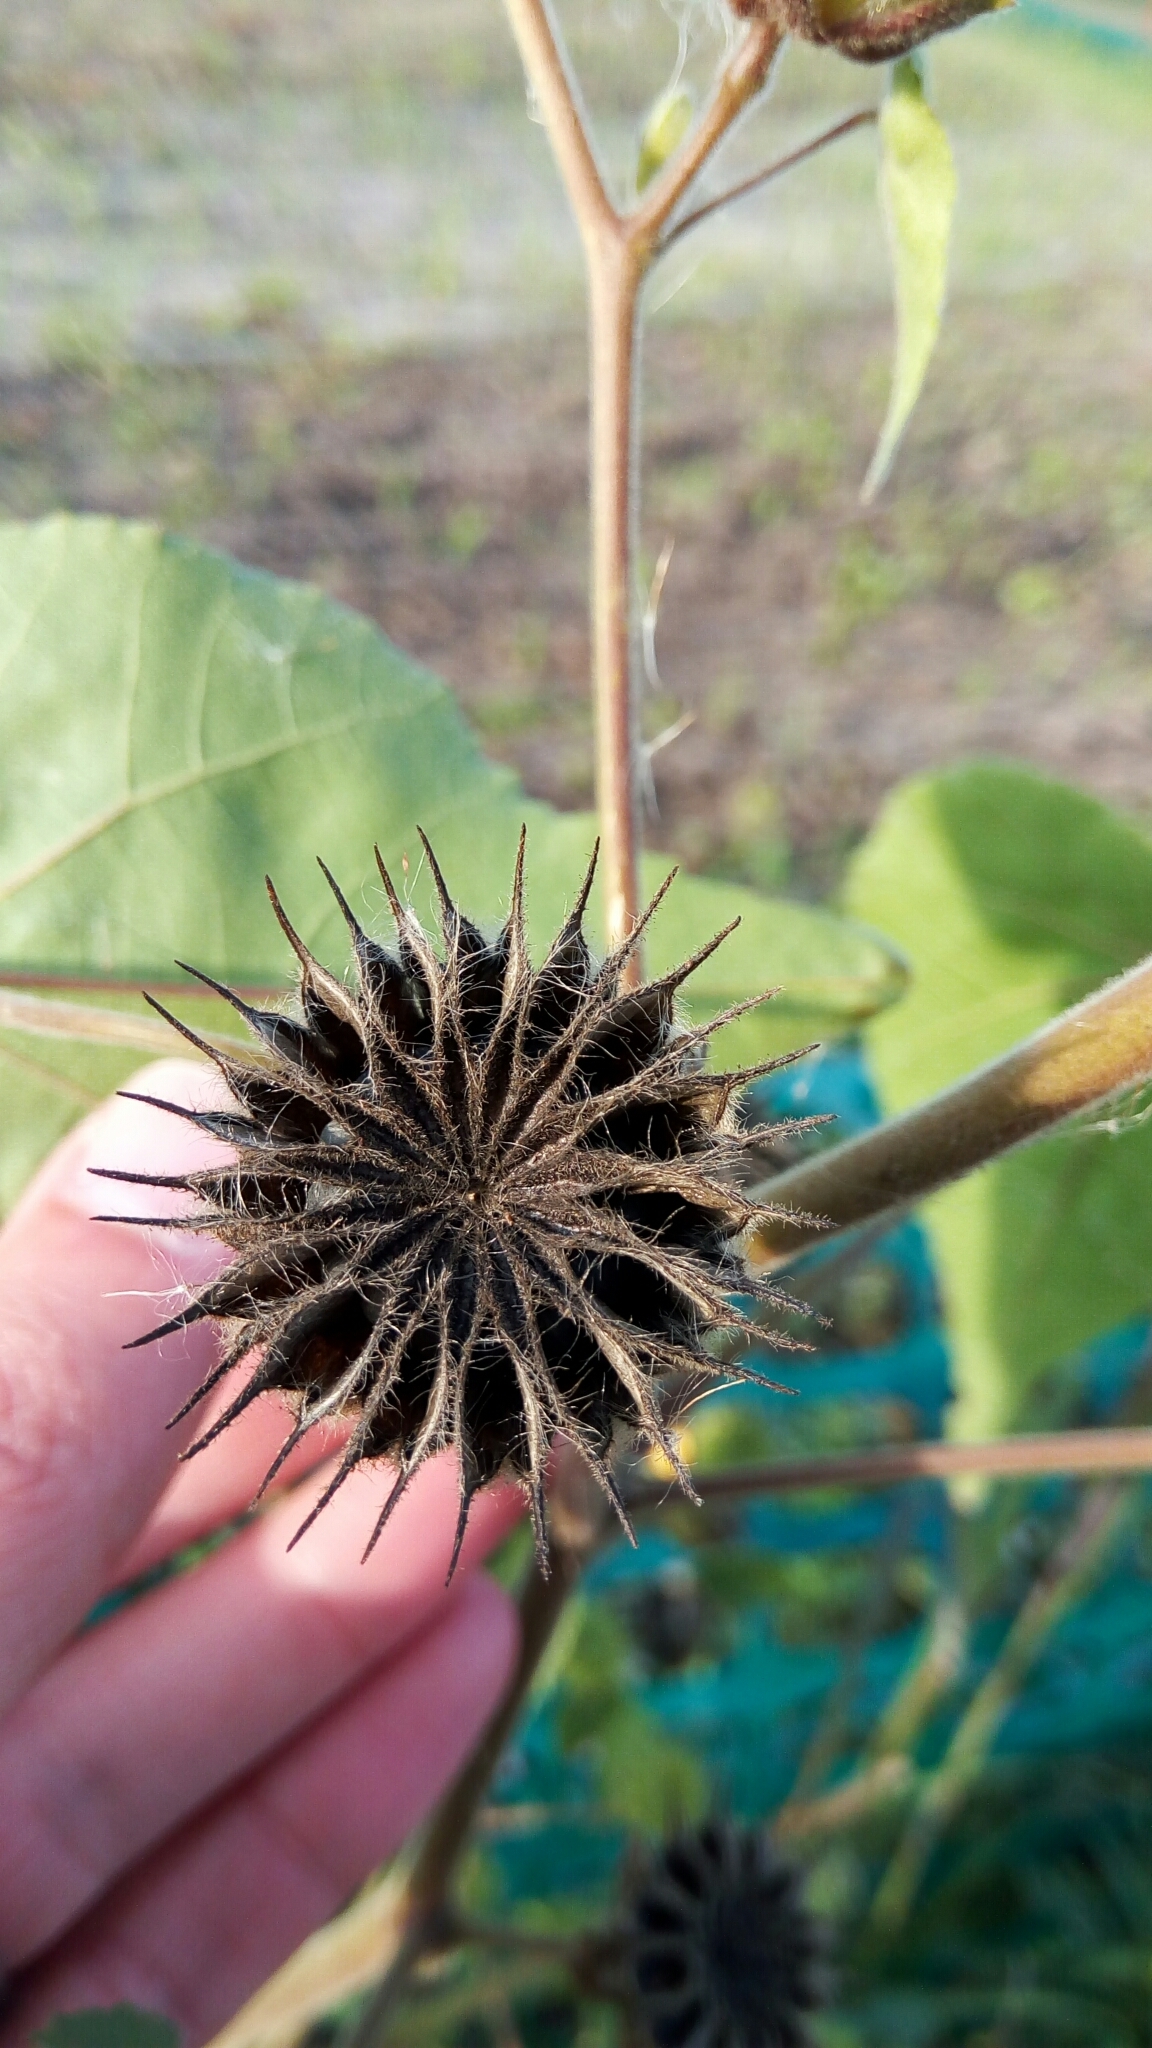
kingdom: Plantae
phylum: Tracheophyta
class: Magnoliopsida
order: Malvales
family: Malvaceae
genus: Abutilon
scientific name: Abutilon theophrasti
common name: Velvetleaf
